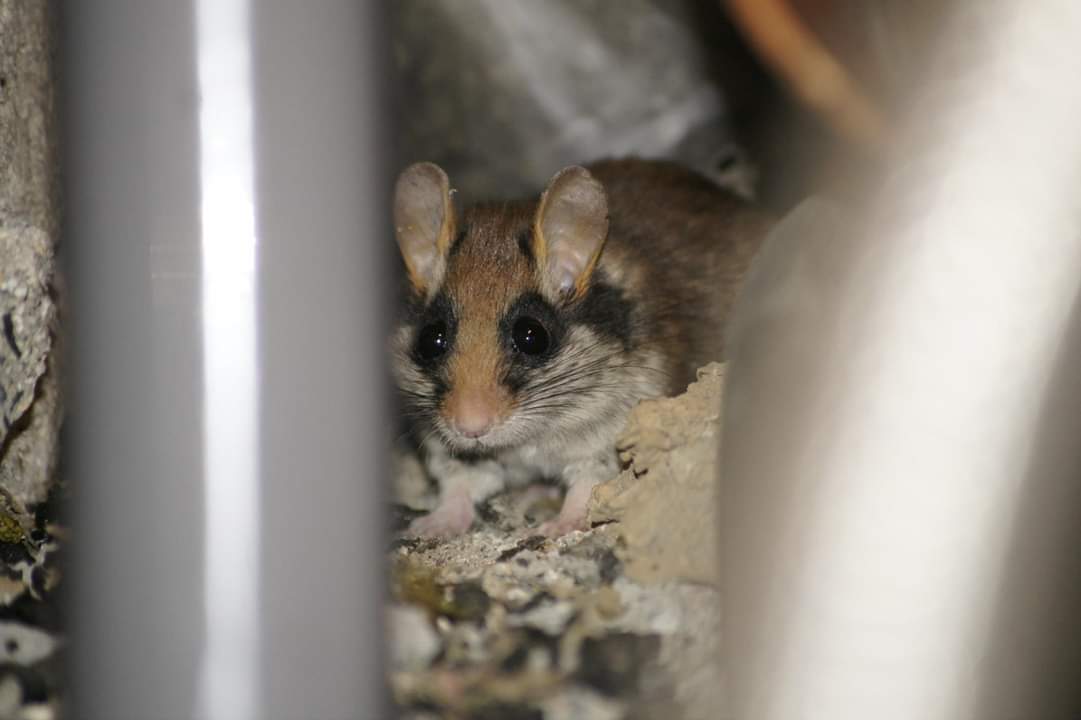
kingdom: Animalia
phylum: Chordata
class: Mammalia
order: Rodentia
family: Gliridae
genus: Eliomys
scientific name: Eliomys quercinus
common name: Garden dormouse
